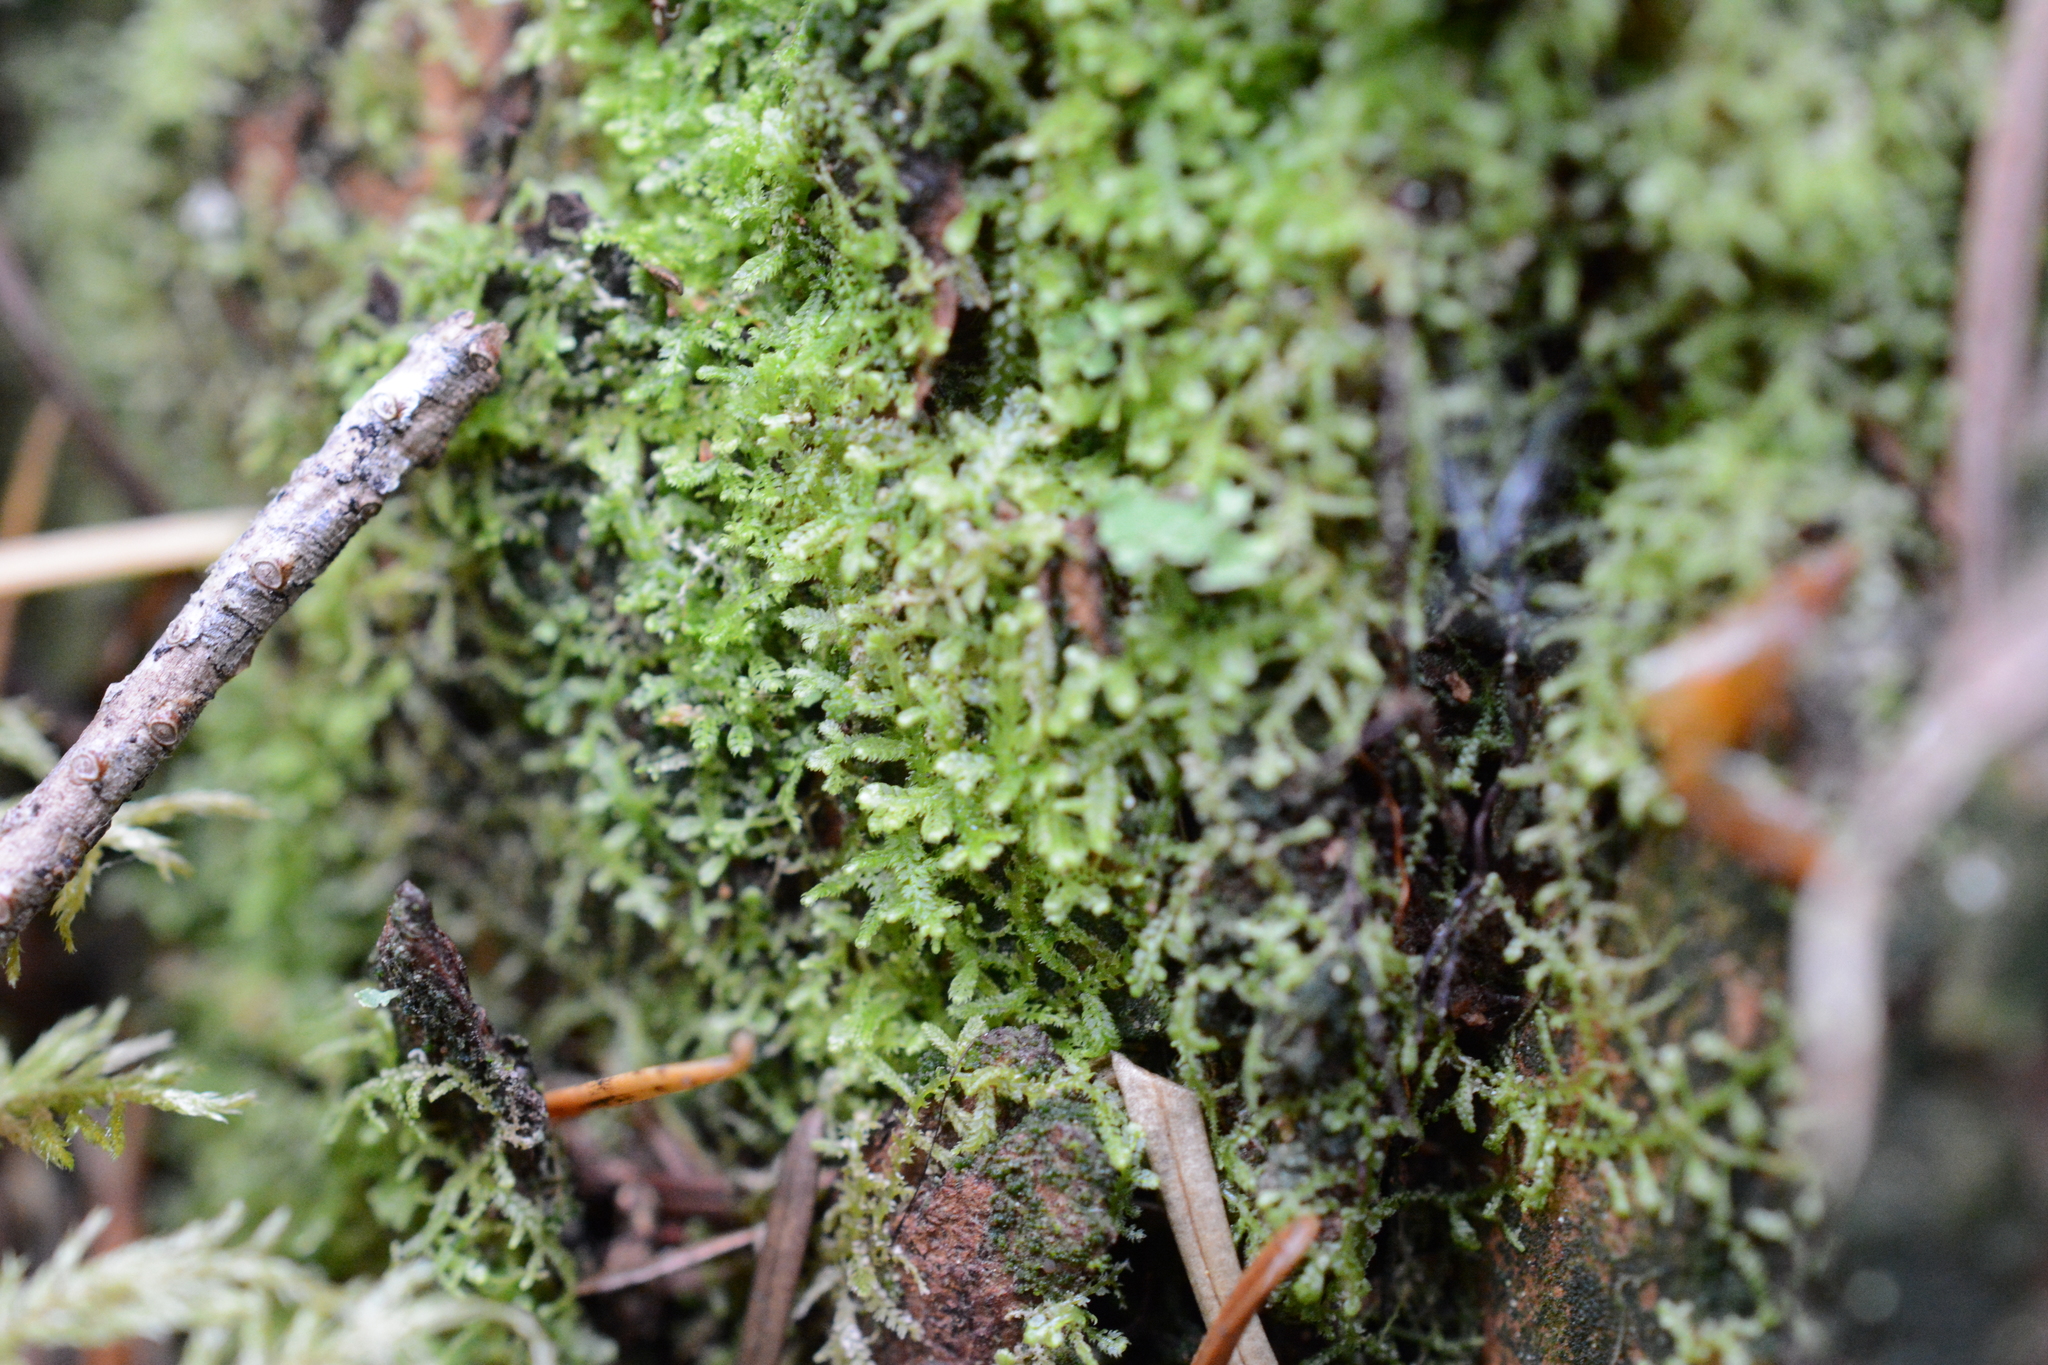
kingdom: Plantae
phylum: Marchantiophyta
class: Jungermanniopsida
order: Jungermanniales
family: Lepidoziaceae
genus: Lepidozia
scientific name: Lepidozia reptans
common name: Creeping fingerwort
